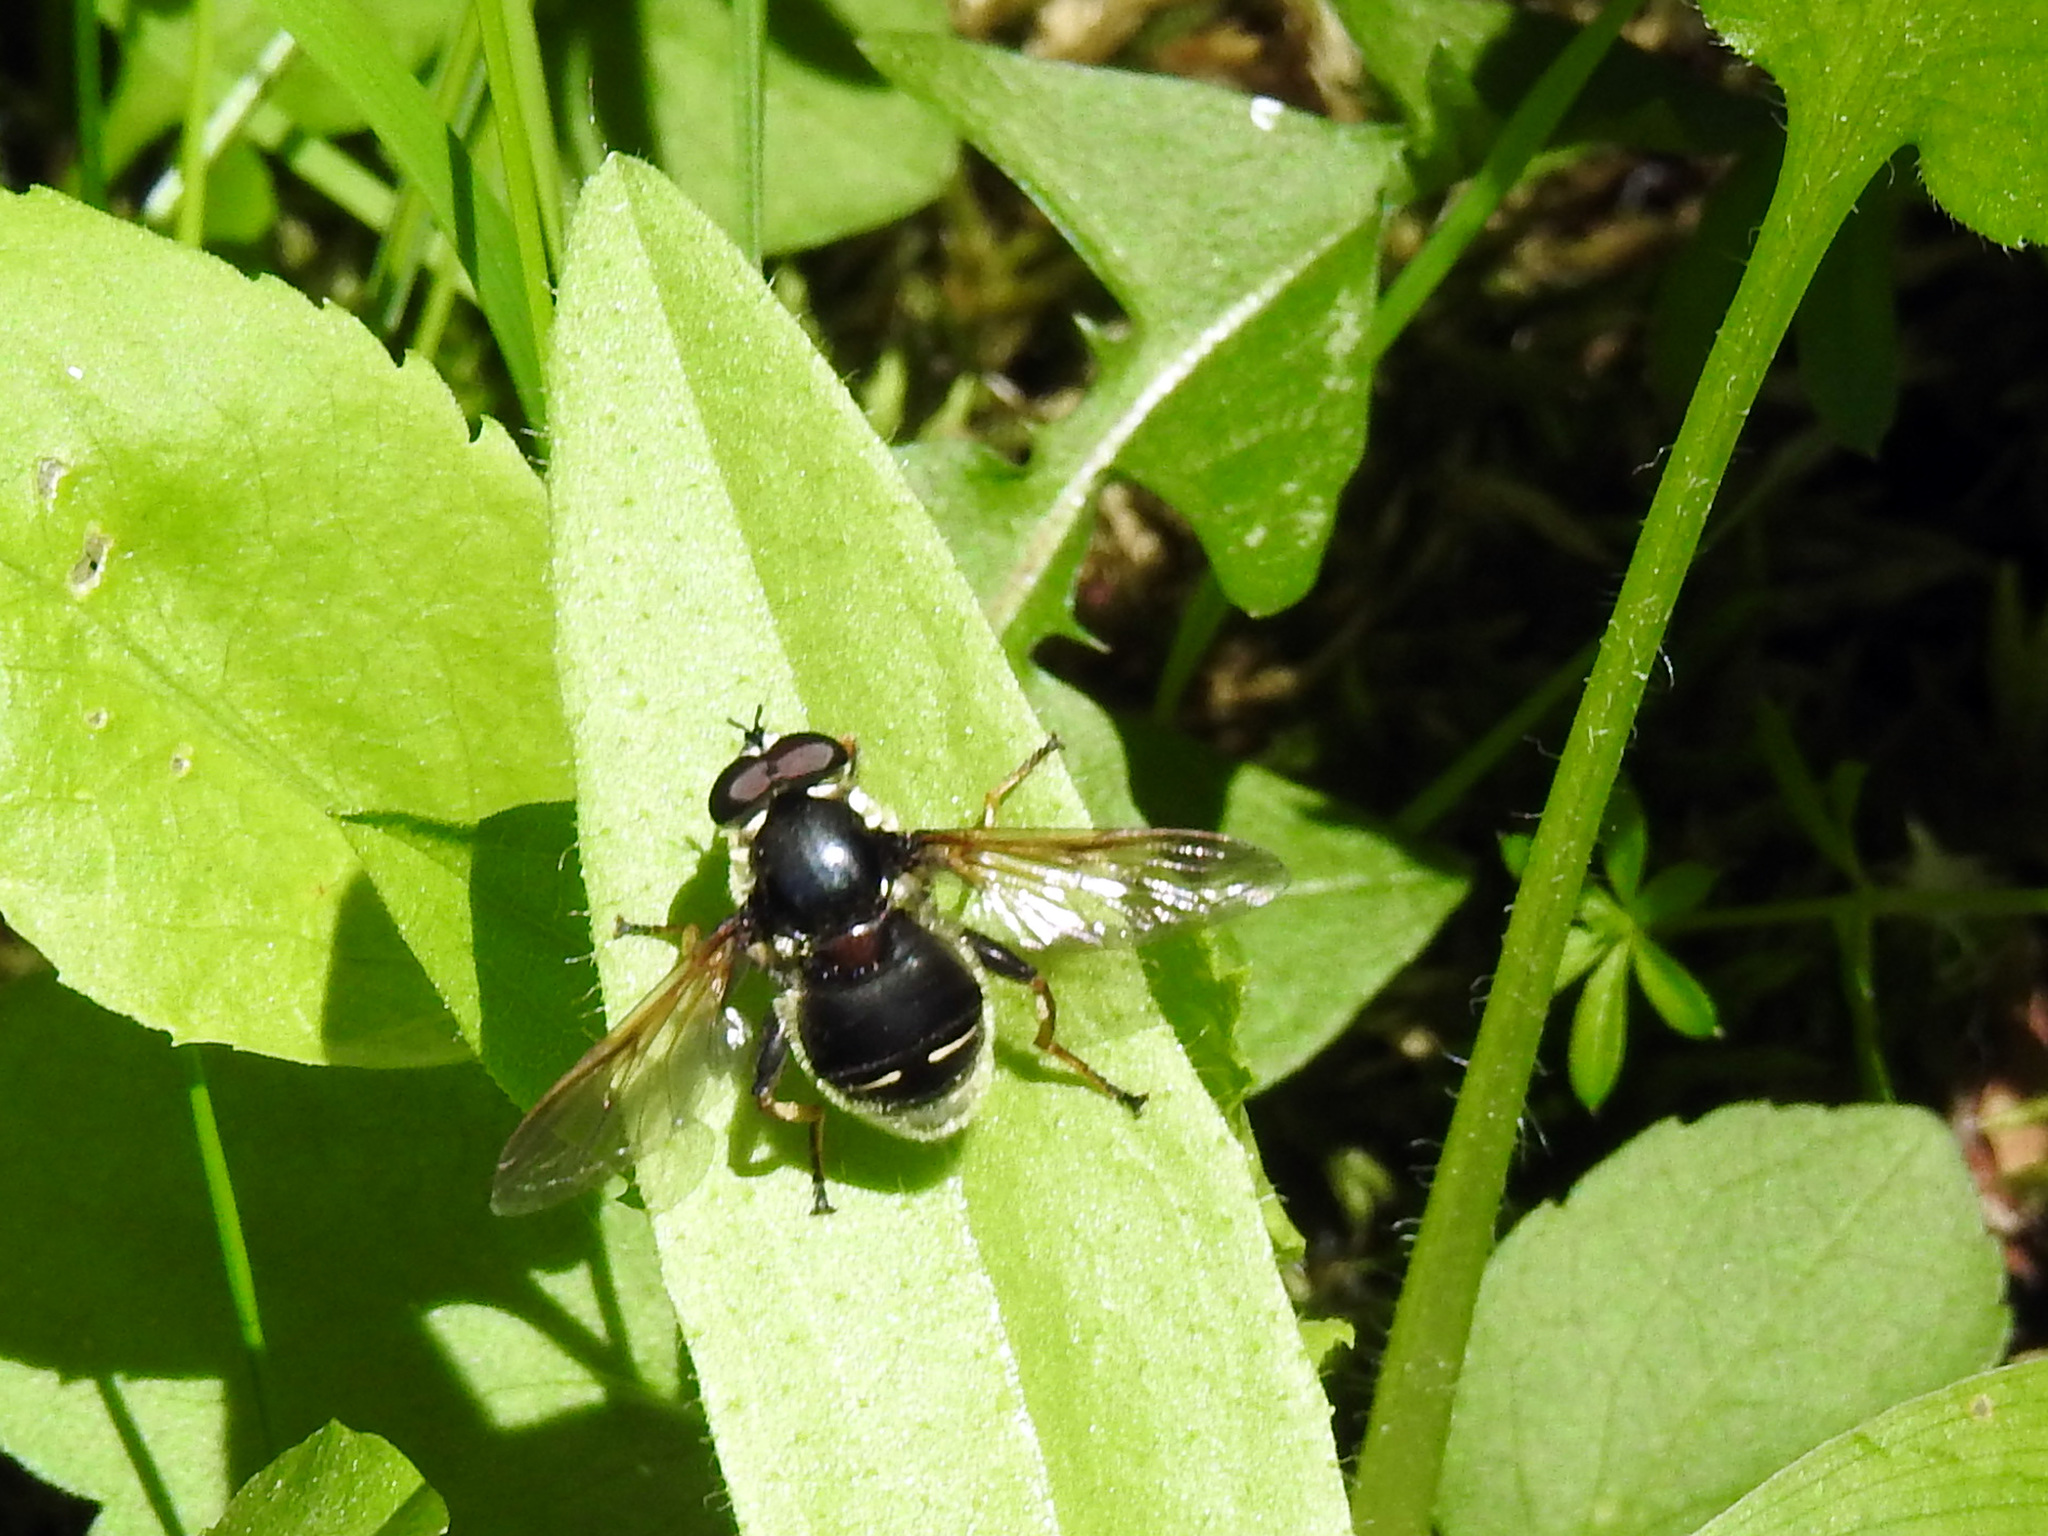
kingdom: Animalia
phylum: Arthropoda
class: Insecta
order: Diptera
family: Syrphidae
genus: Sericomyia
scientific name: Sericomyia militaris
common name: Narrow-banded pond fly
